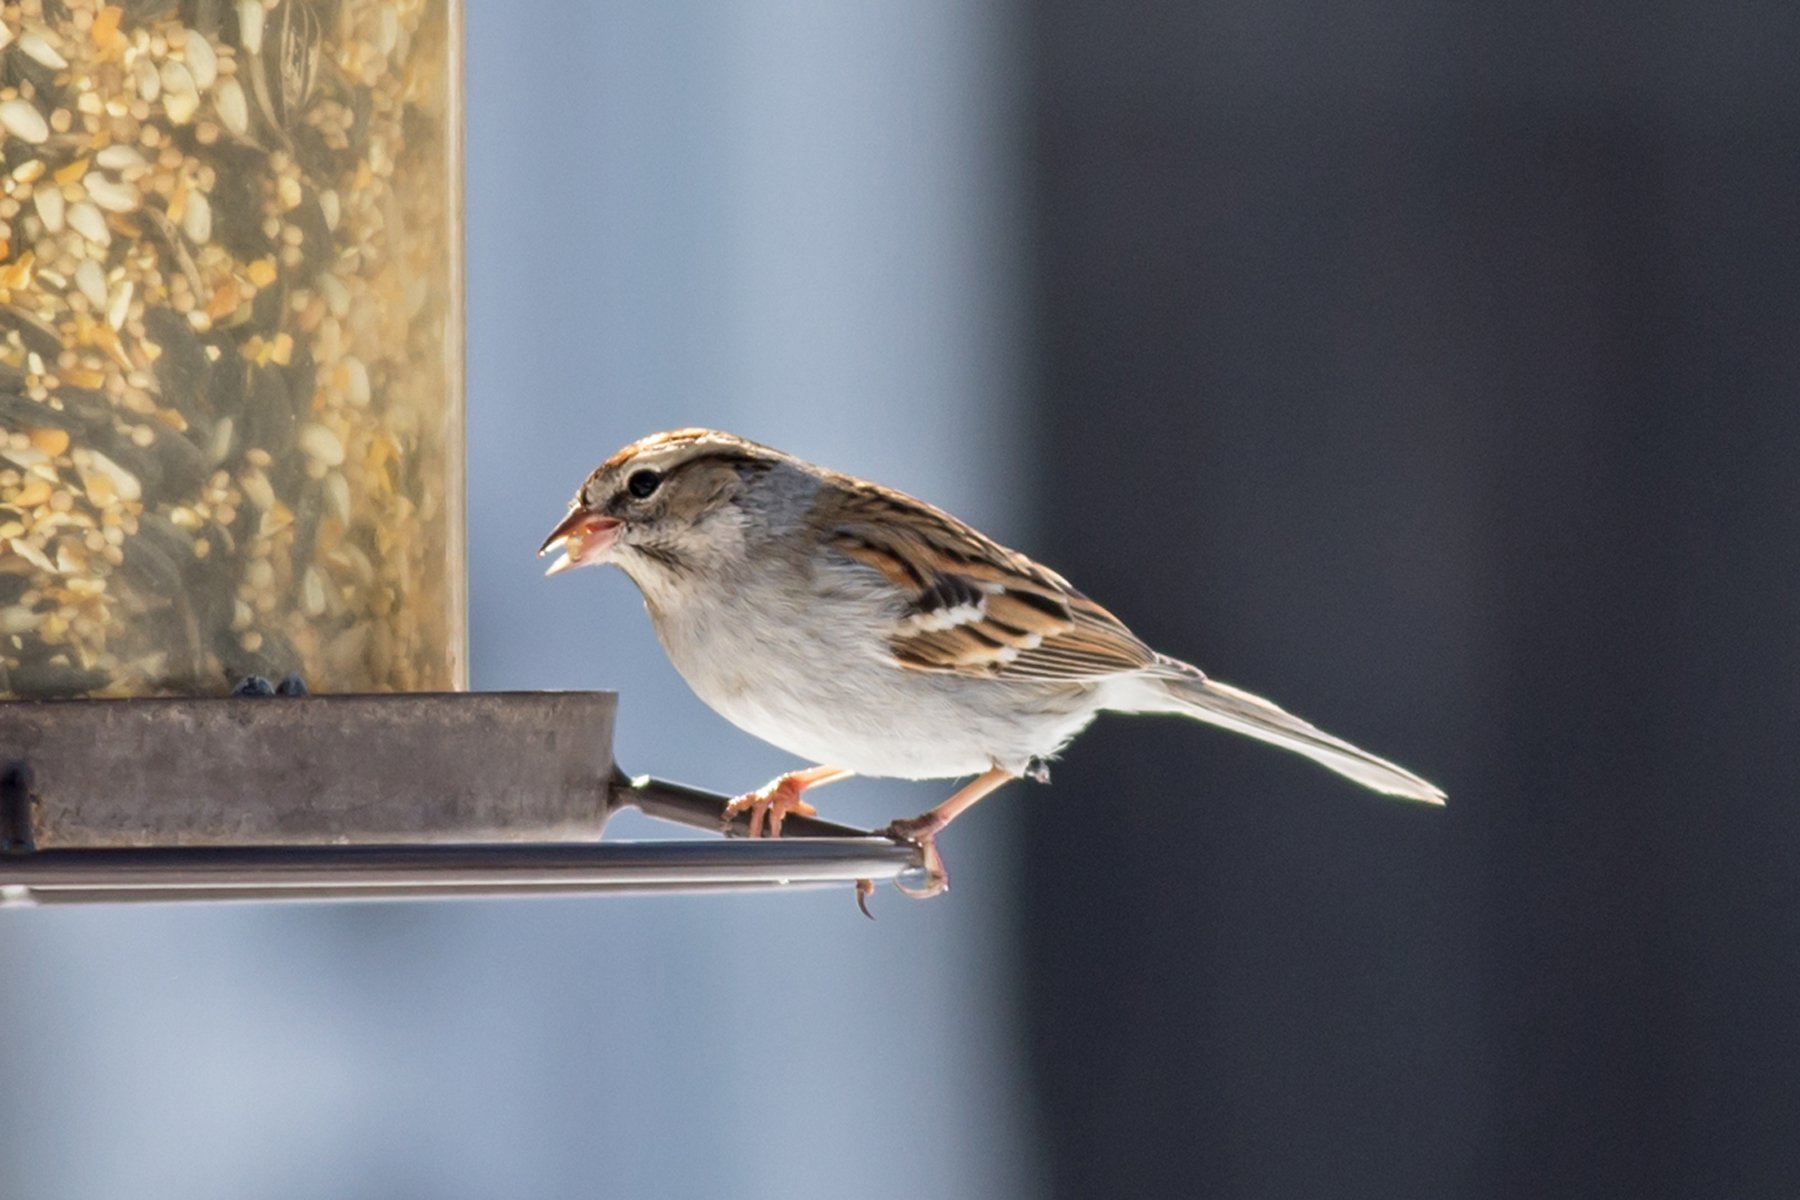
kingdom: Animalia
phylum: Chordata
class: Aves
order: Passeriformes
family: Passerellidae
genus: Spizella
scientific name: Spizella passerina
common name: Chipping sparrow
